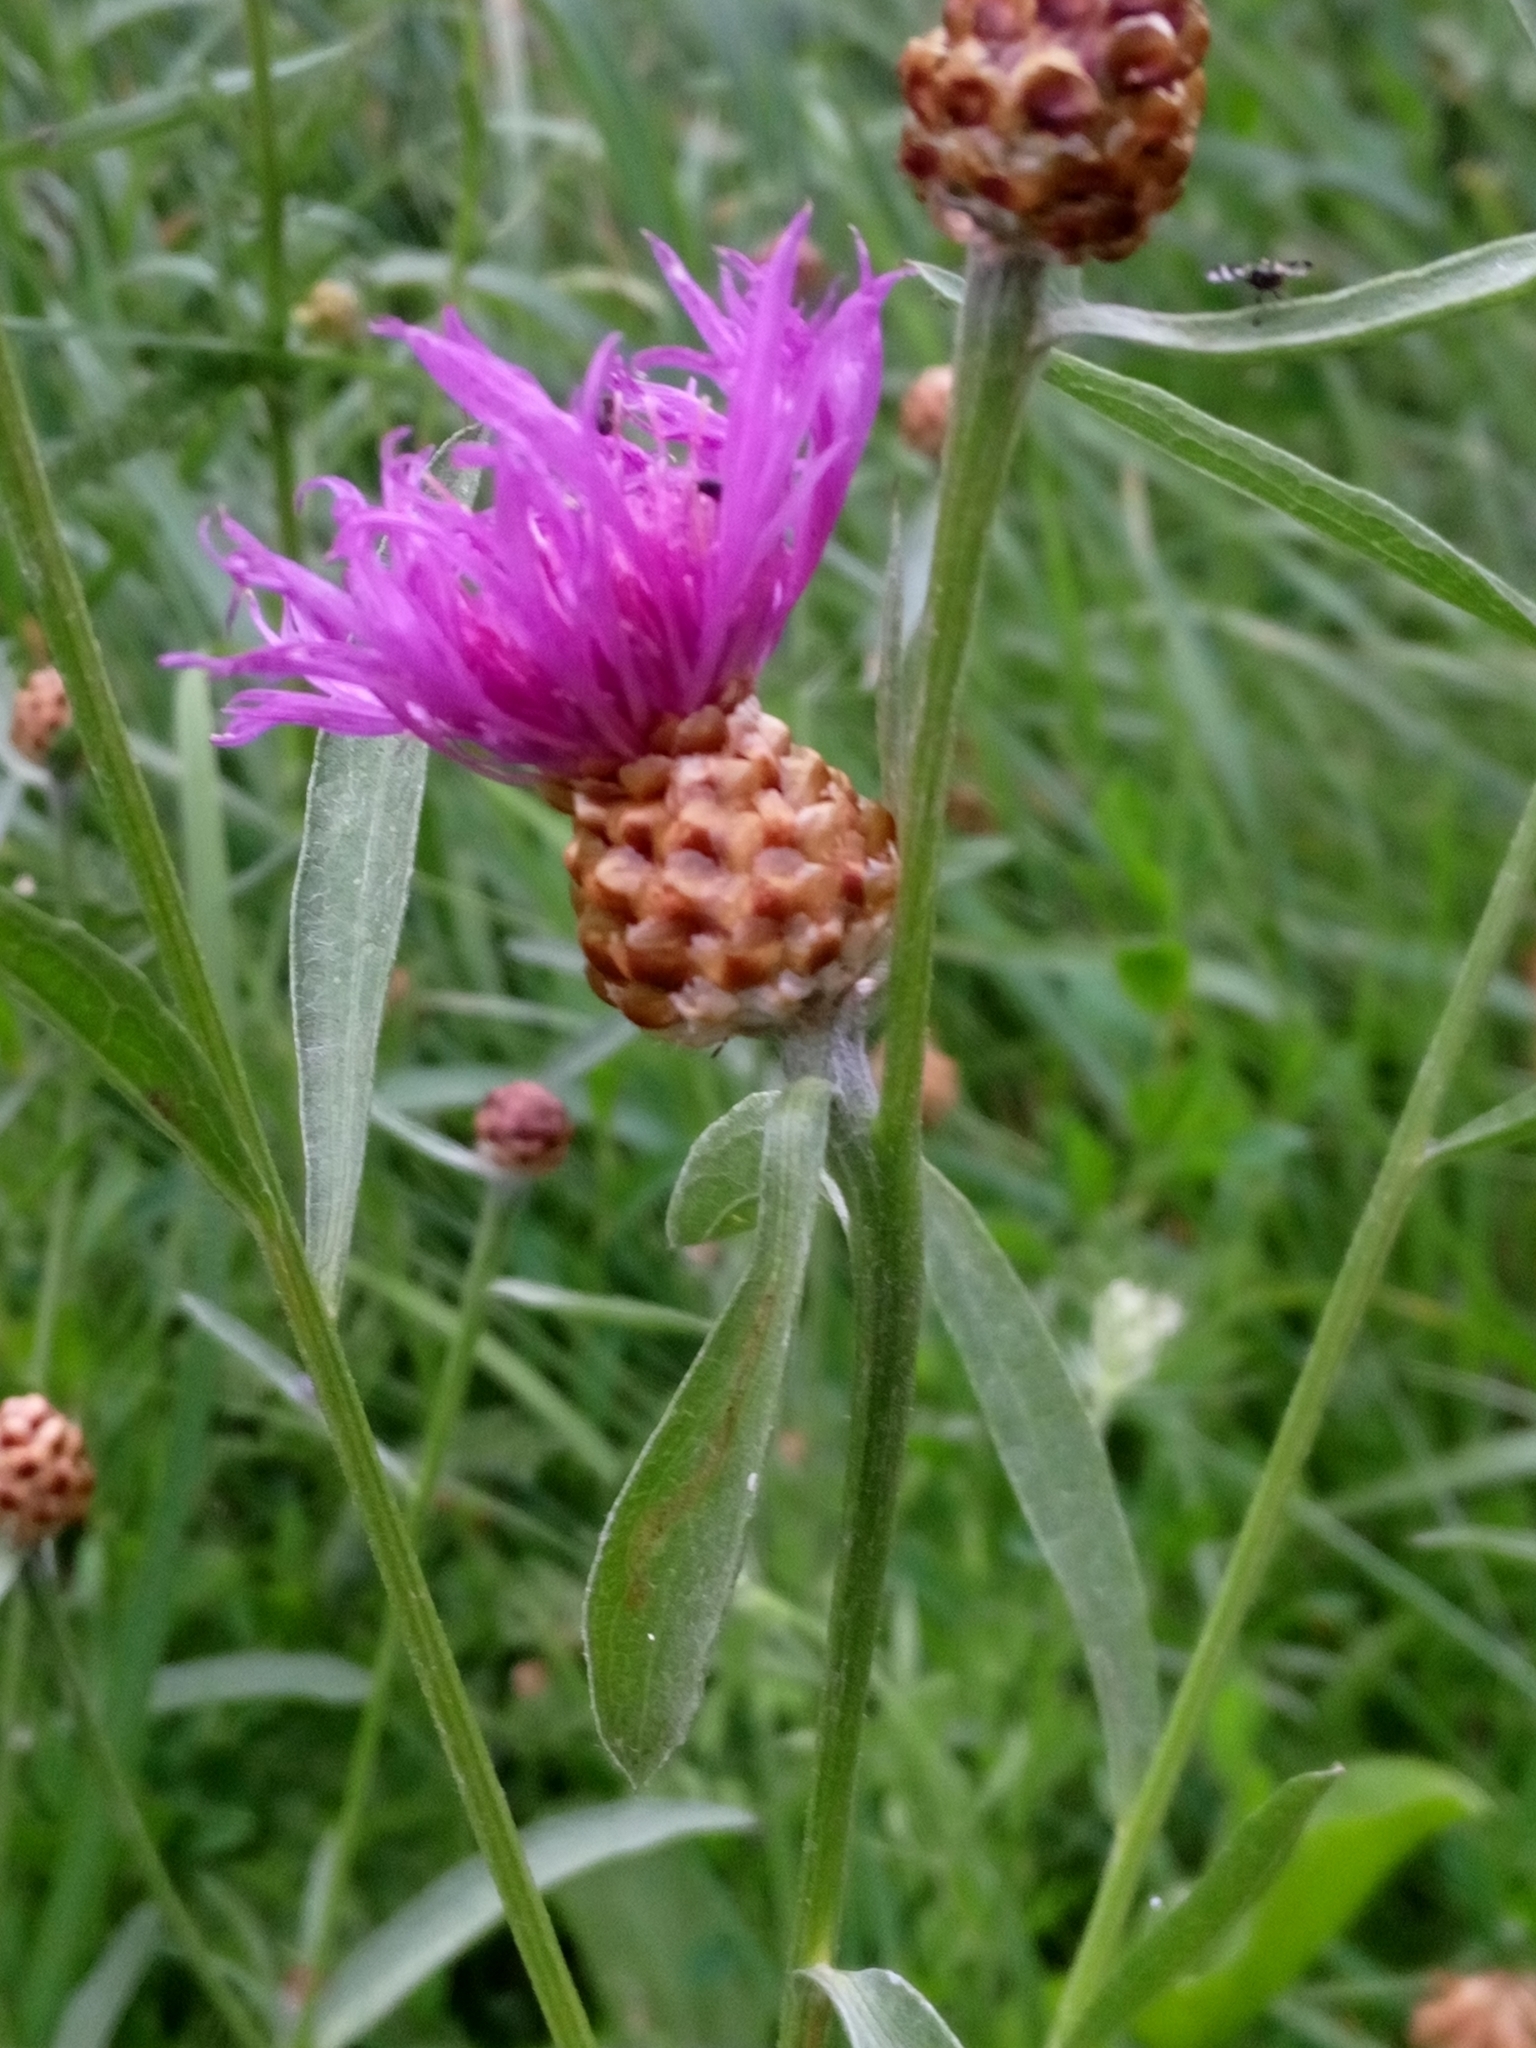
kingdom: Plantae
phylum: Tracheophyta
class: Magnoliopsida
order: Asterales
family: Asteraceae
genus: Centaurea
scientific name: Centaurea jacea
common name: Brown knapweed
